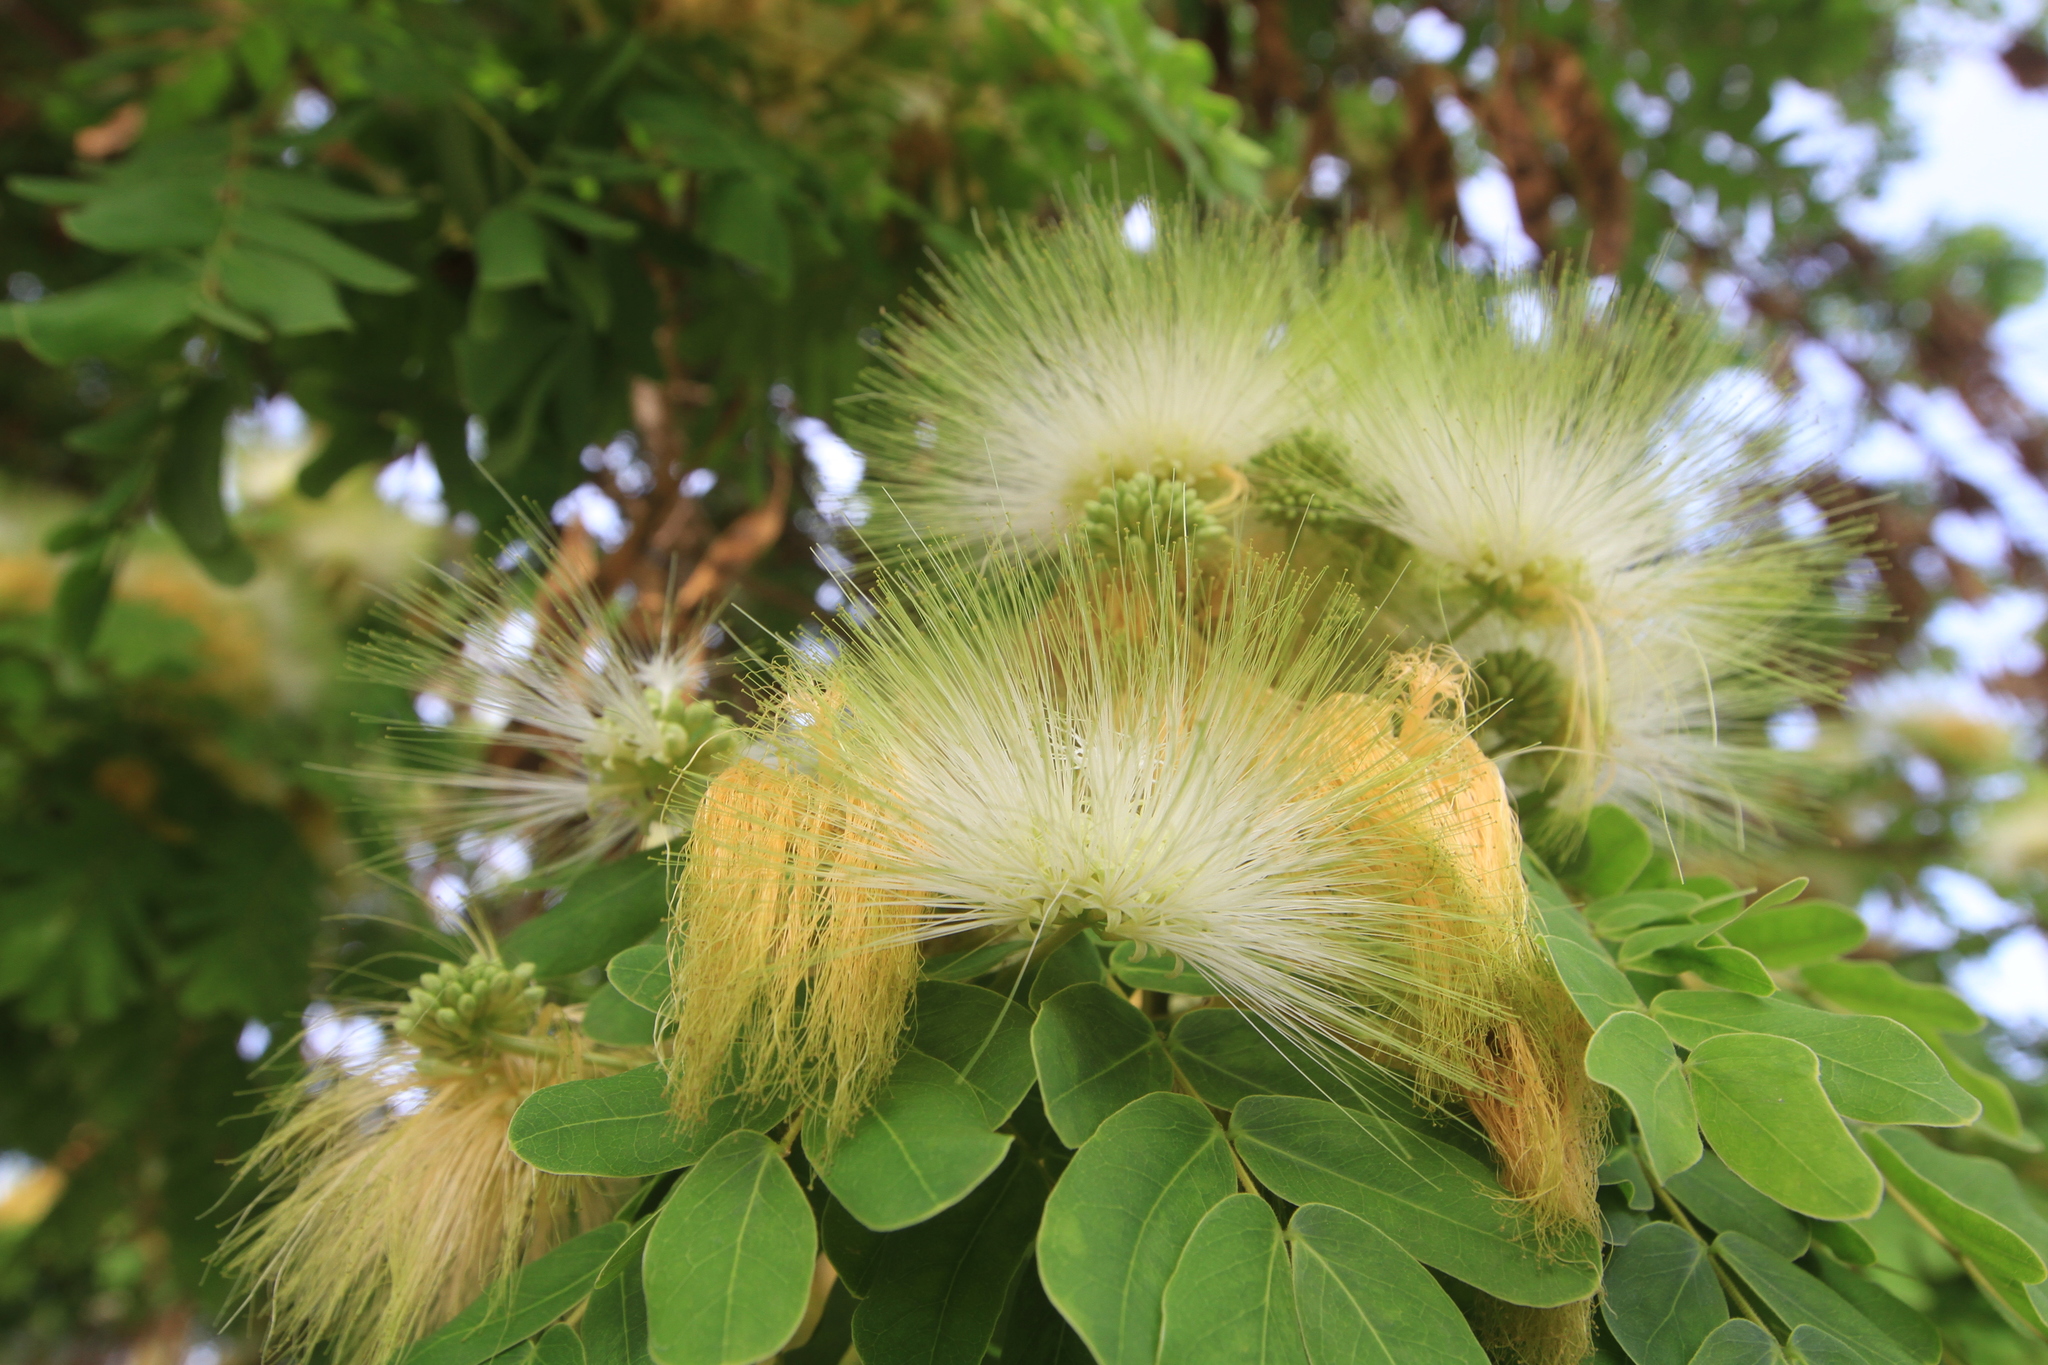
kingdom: Plantae
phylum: Tracheophyta
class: Magnoliopsida
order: Fabales
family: Fabaceae
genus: Albizia
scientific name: Albizia lebbeck
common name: Woman's tongue
